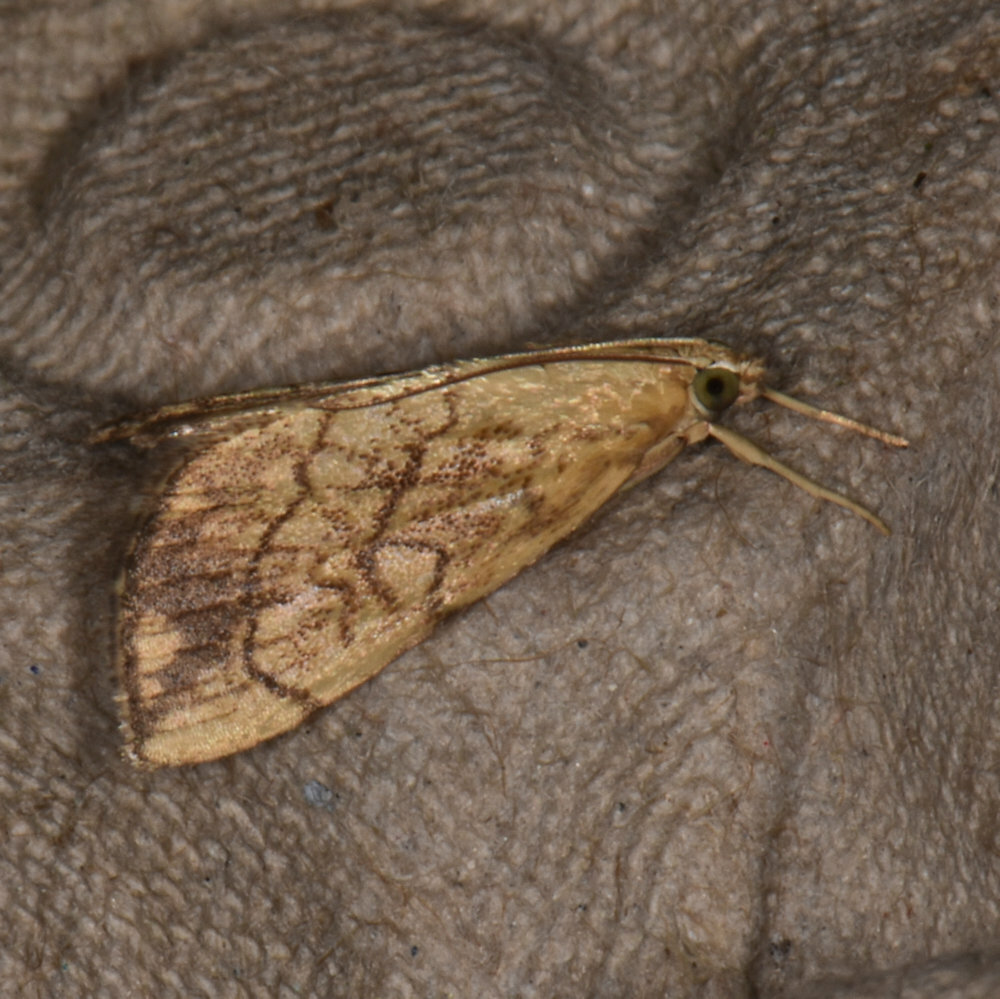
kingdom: Animalia
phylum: Arthropoda
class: Insecta
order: Lepidoptera
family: Crambidae
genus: Evergestis
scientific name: Evergestis pallidata
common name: Chequered pearl
